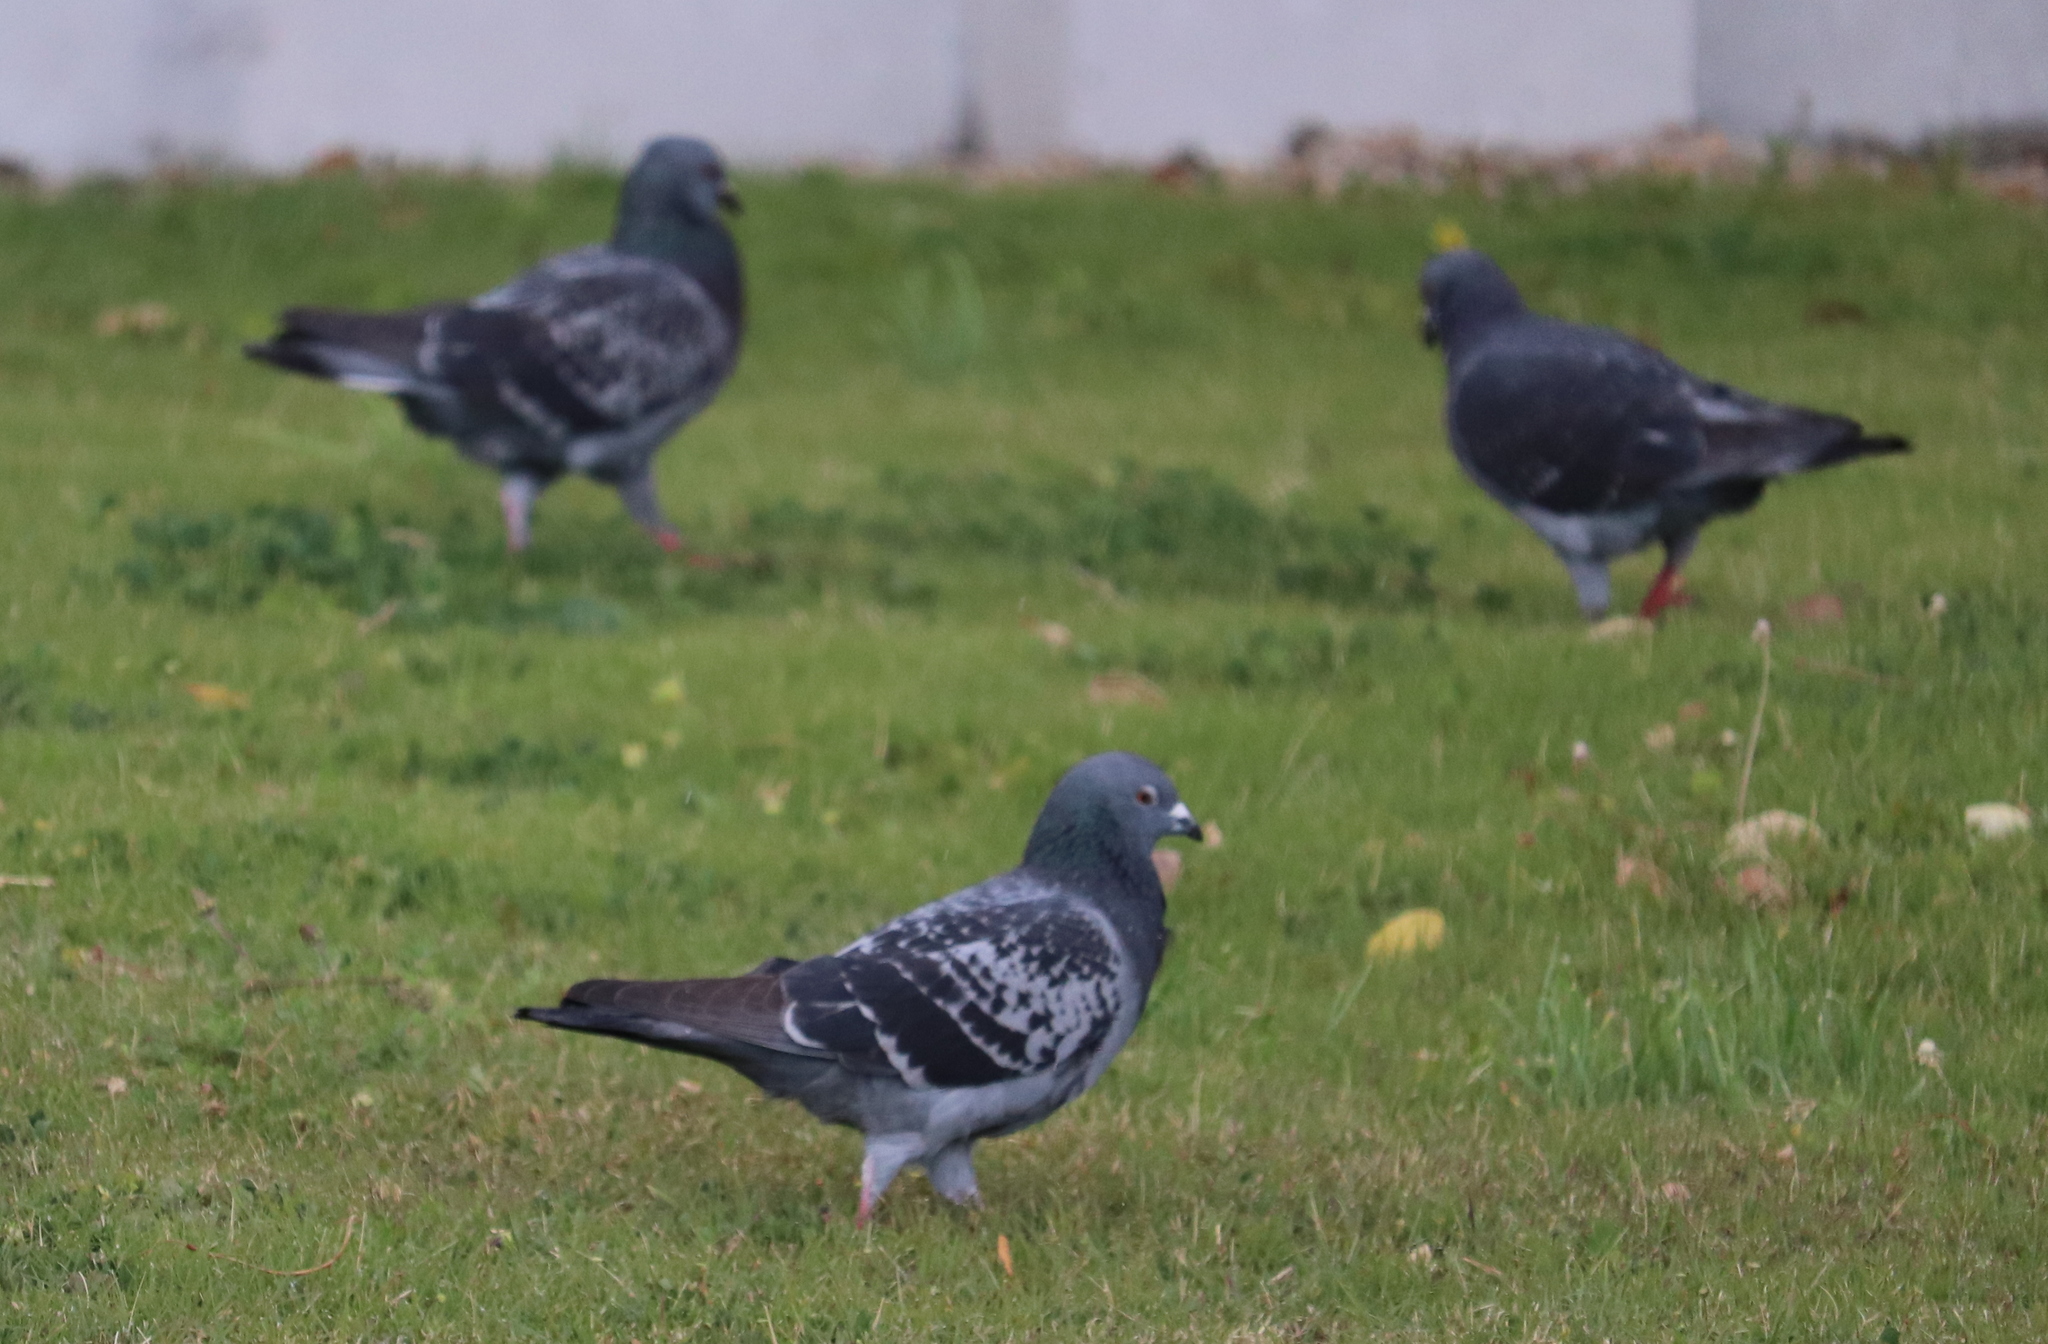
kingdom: Animalia
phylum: Chordata
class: Aves
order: Columbiformes
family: Columbidae
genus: Columba
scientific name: Columba livia
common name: Rock pigeon
